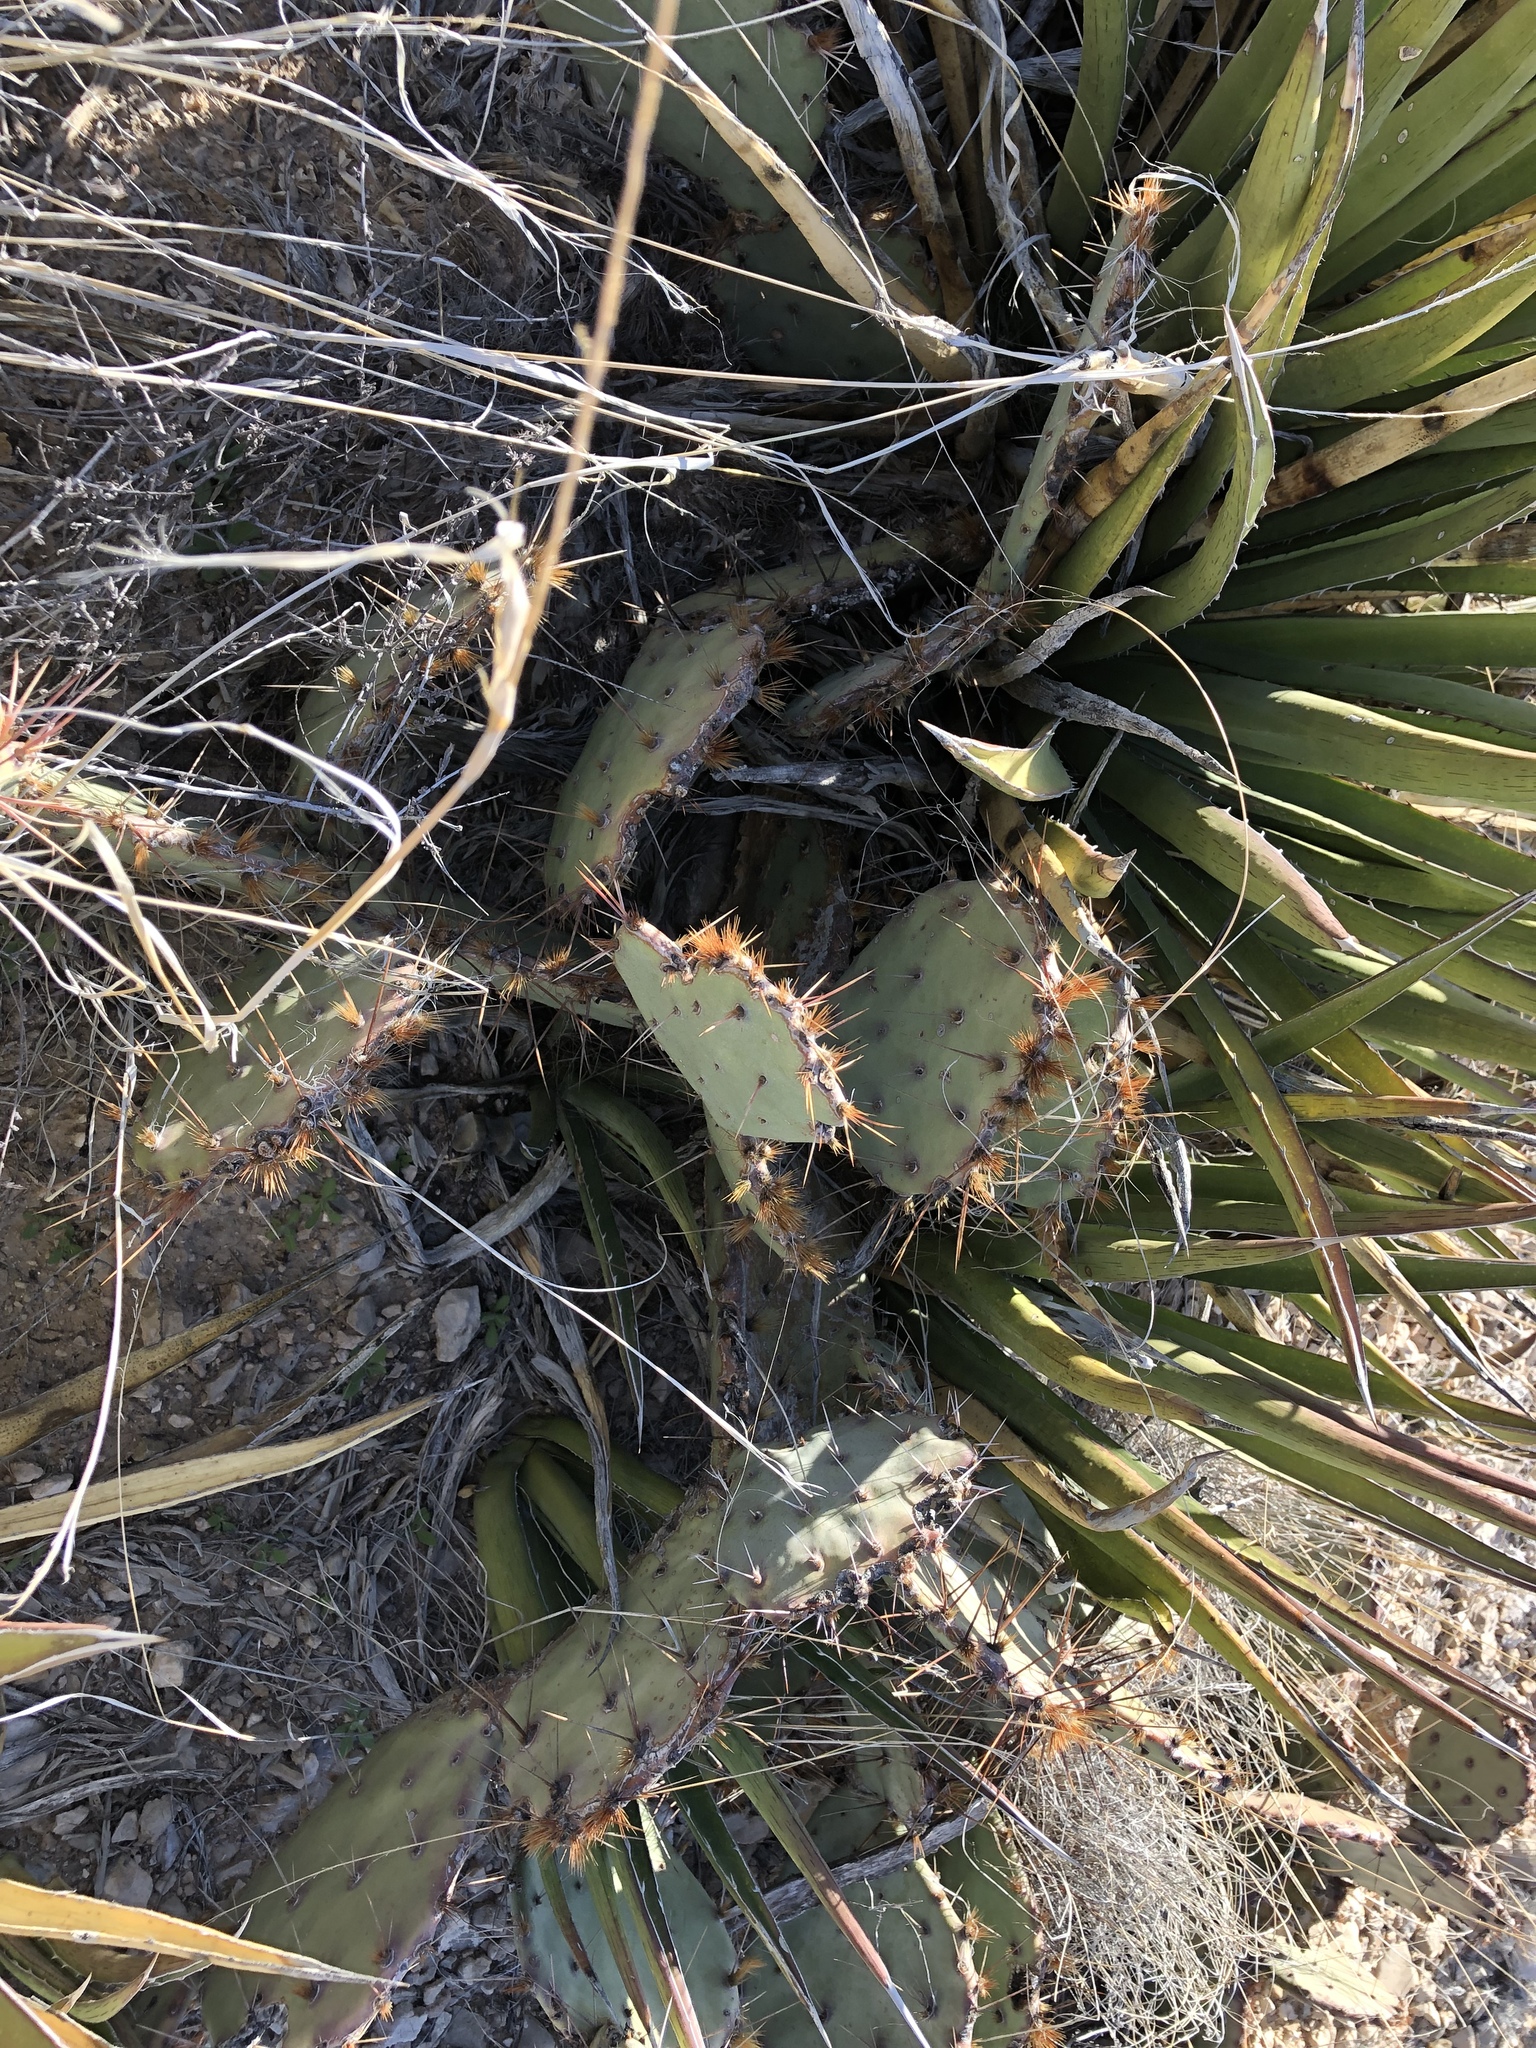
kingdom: Plantae
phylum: Tracheophyta
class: Magnoliopsida
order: Caryophyllales
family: Cactaceae
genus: Opuntia
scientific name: Opuntia engelmannii
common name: Cactus-apple
